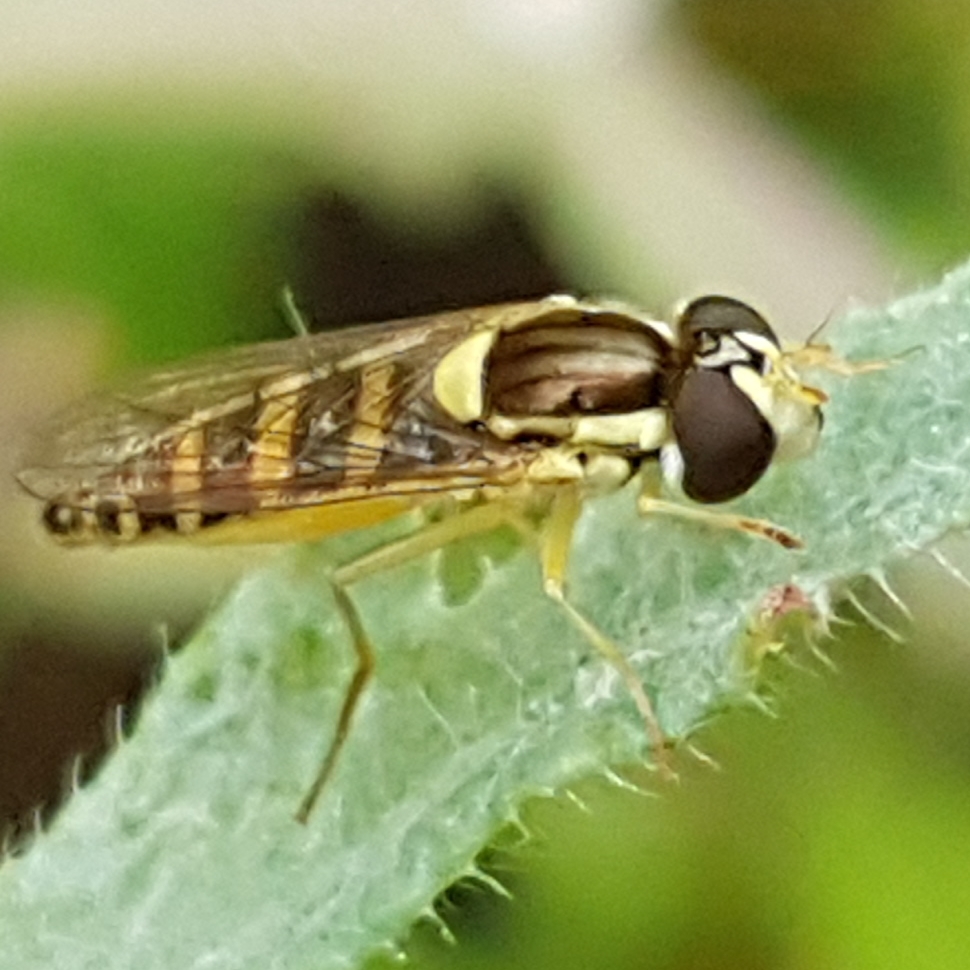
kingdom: Animalia
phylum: Arthropoda
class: Insecta
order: Diptera
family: Syrphidae
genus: Sphaerophoria
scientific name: Sphaerophoria
